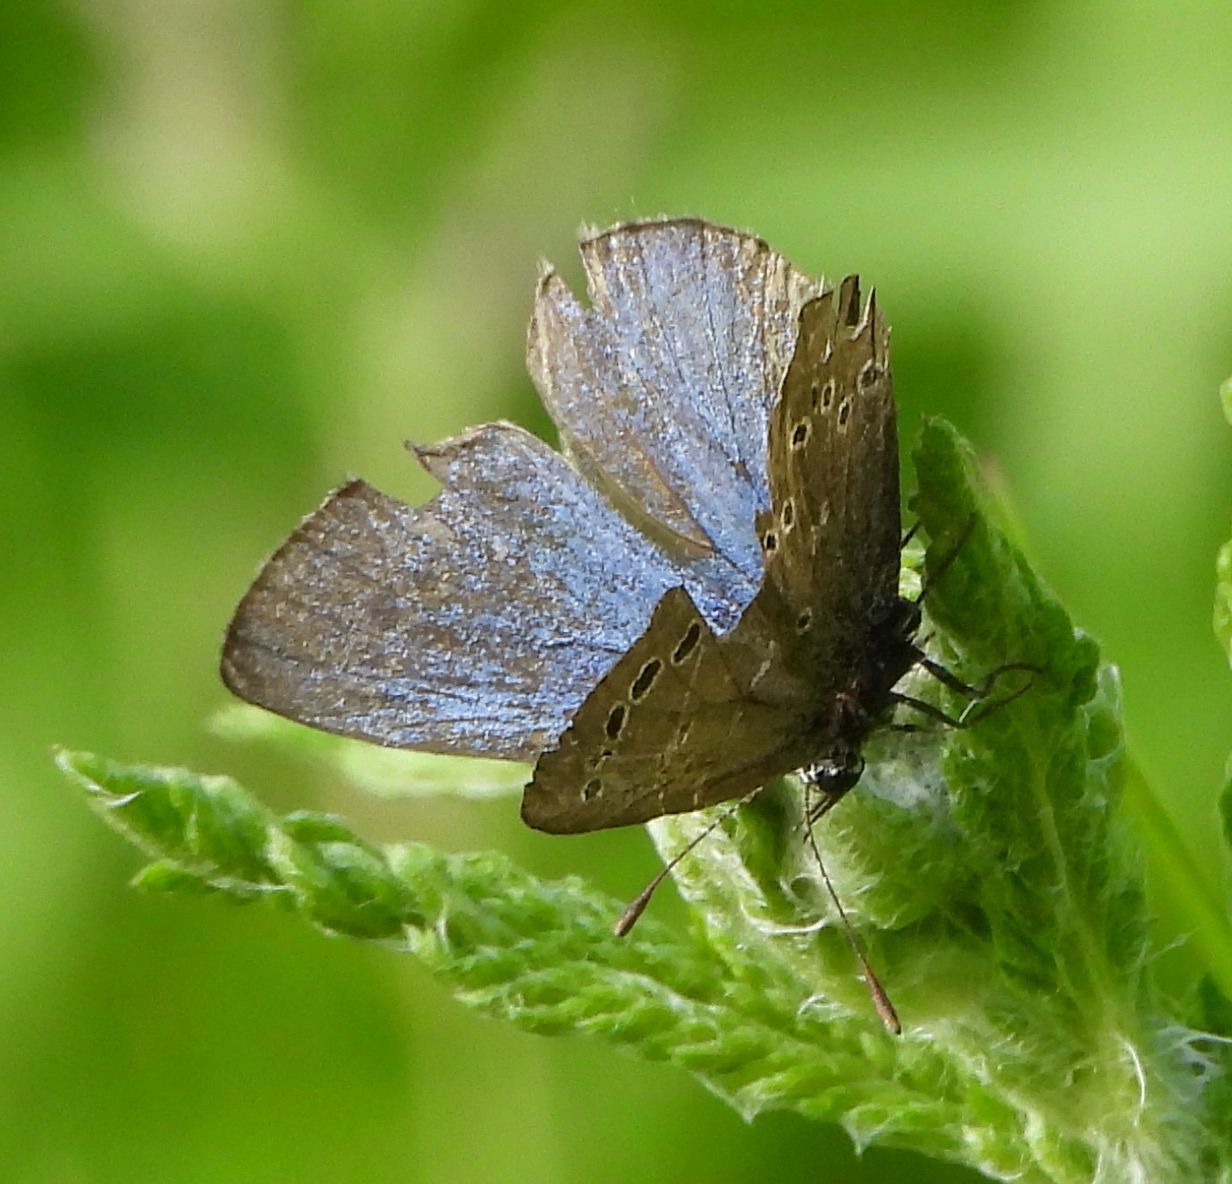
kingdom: Animalia
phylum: Arthropoda
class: Insecta
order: Lepidoptera
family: Lycaenidae
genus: Glaucopsyche
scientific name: Glaucopsyche lygdamus
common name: Silvery blue
